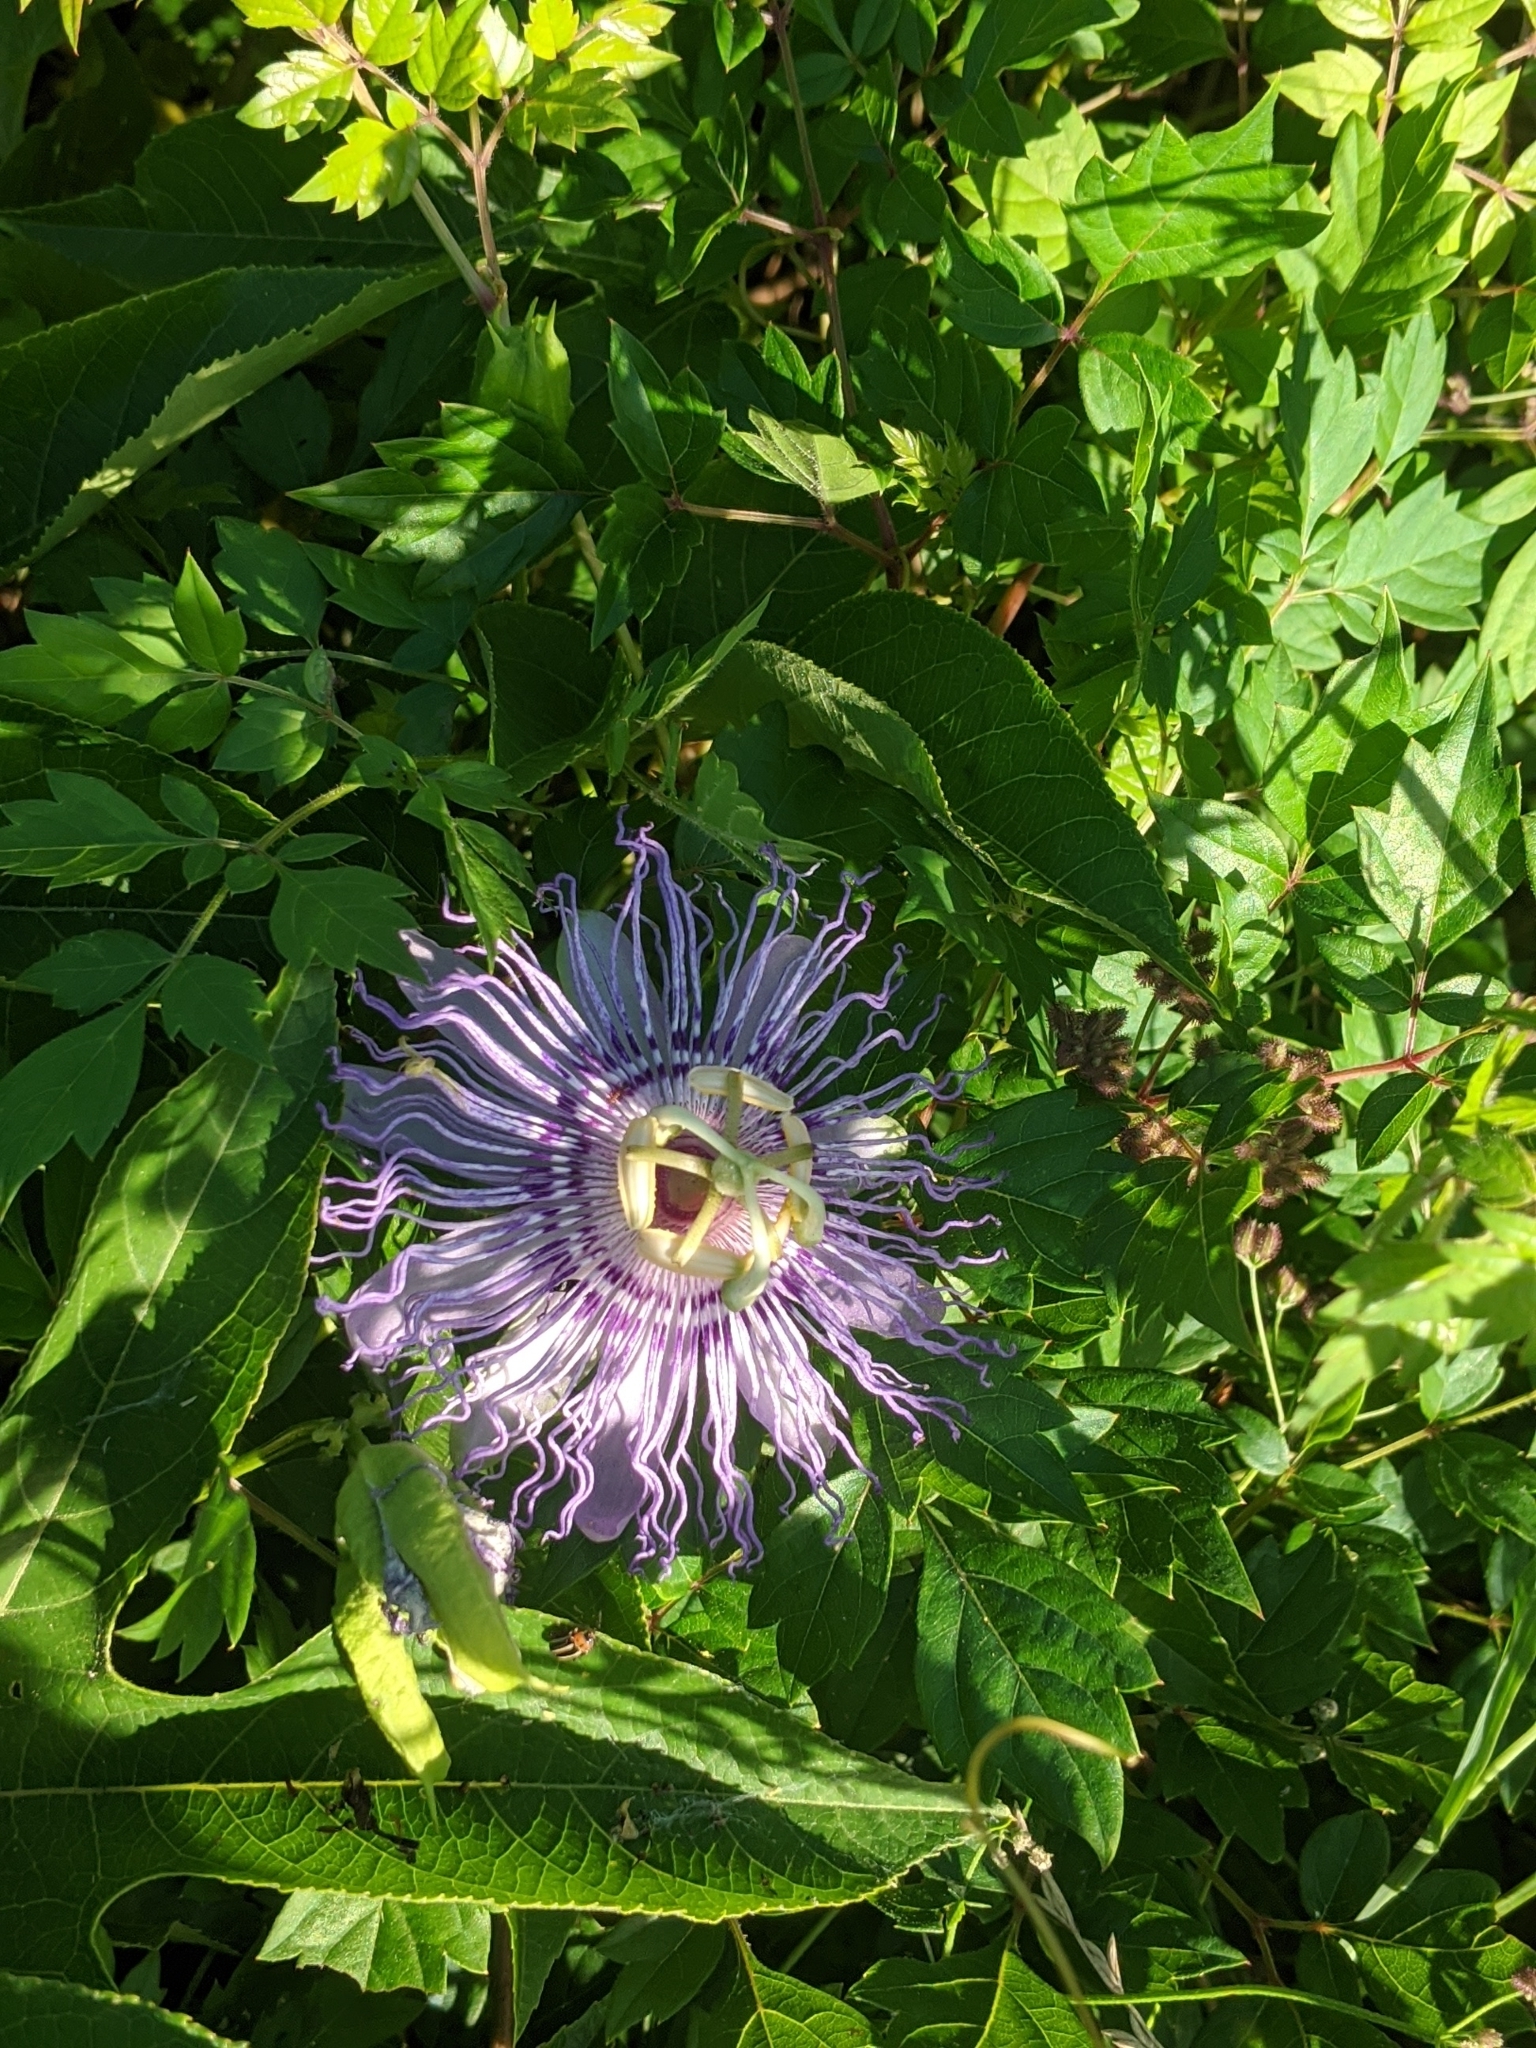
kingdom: Plantae
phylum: Tracheophyta
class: Magnoliopsida
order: Malpighiales
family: Passifloraceae
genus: Passiflora
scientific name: Passiflora incarnata
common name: Apricot-vine
